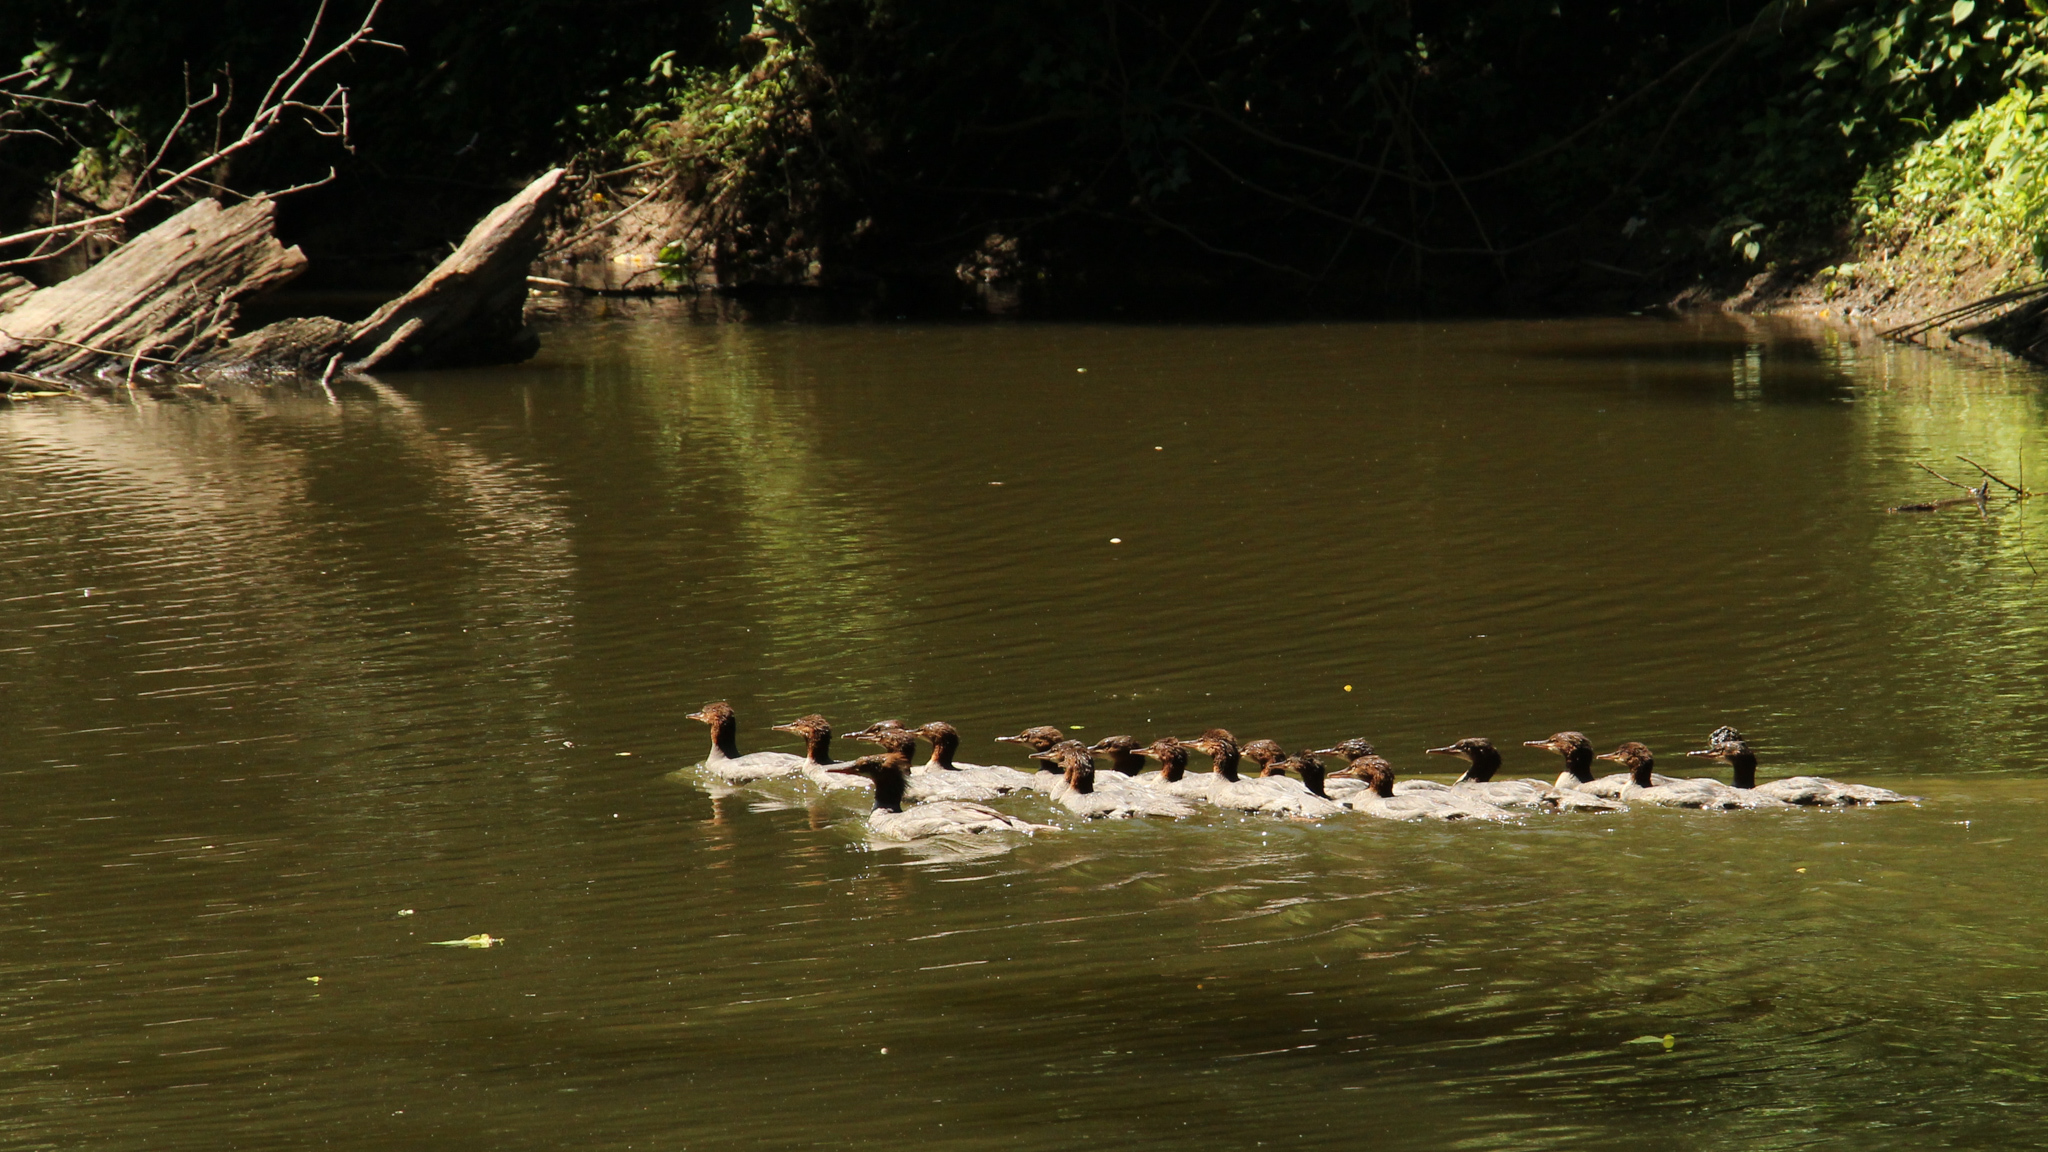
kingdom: Animalia
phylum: Chordata
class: Aves
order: Anseriformes
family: Anatidae
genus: Mergus
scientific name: Mergus merganser
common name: Common merganser
